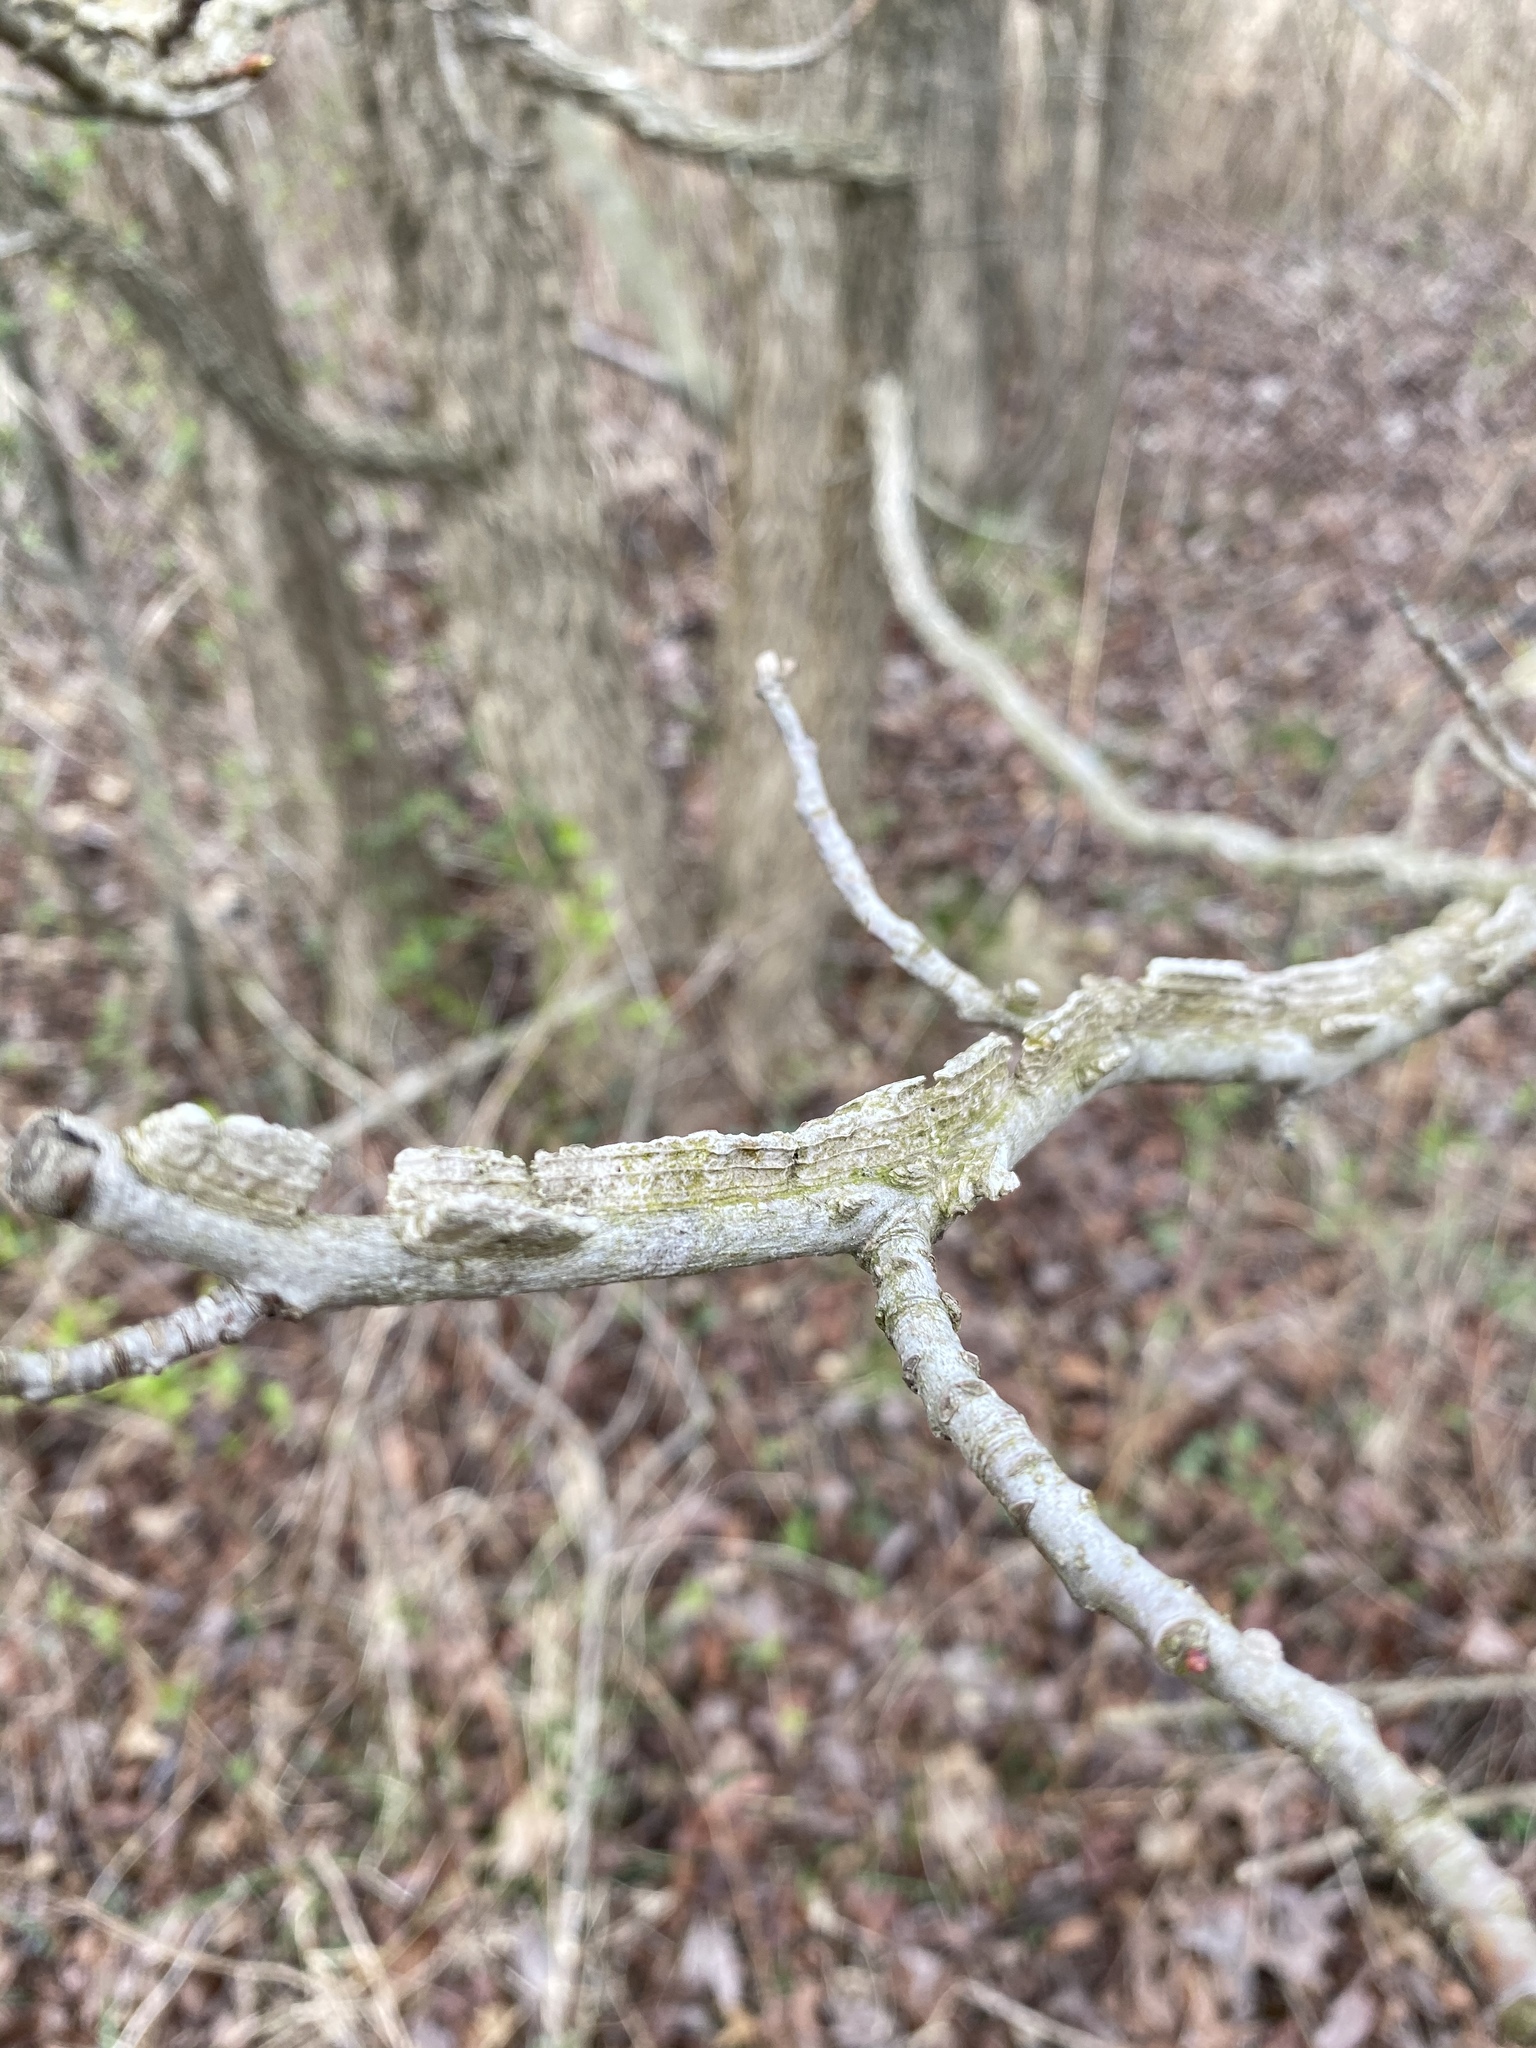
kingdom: Plantae
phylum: Tracheophyta
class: Magnoliopsida
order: Saxifragales
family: Altingiaceae
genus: Liquidambar
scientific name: Liquidambar styraciflua
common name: Sweet gum
